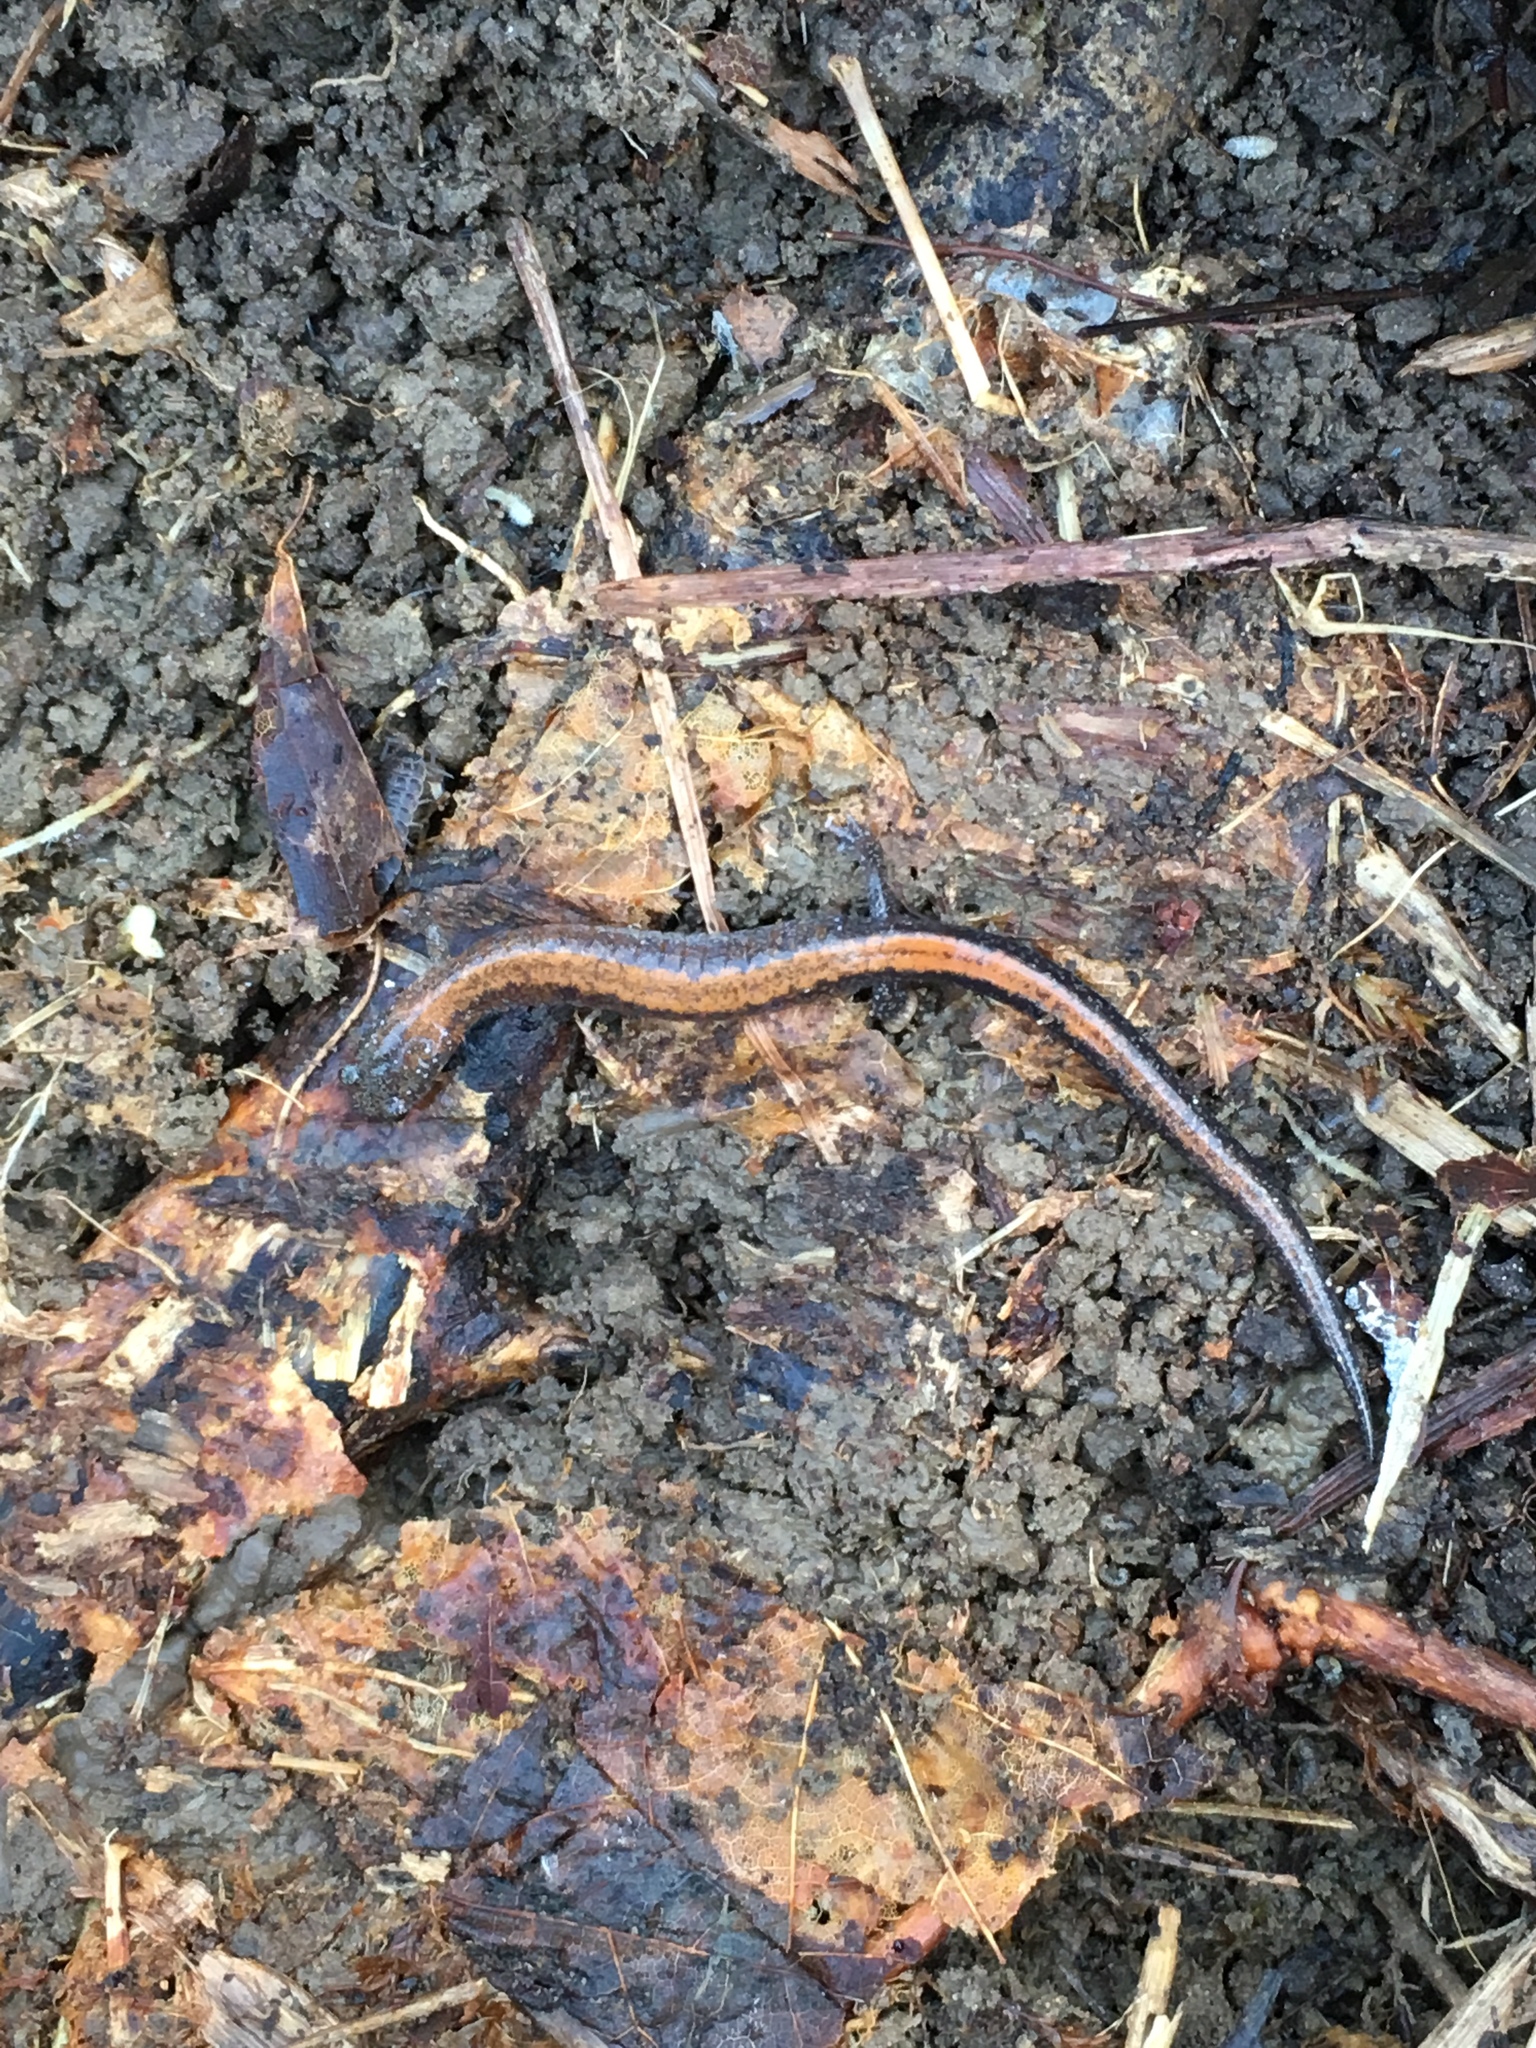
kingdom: Animalia
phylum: Chordata
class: Amphibia
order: Caudata
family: Plethodontidae
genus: Plethodon
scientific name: Plethodon cinereus
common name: Redback salamander
